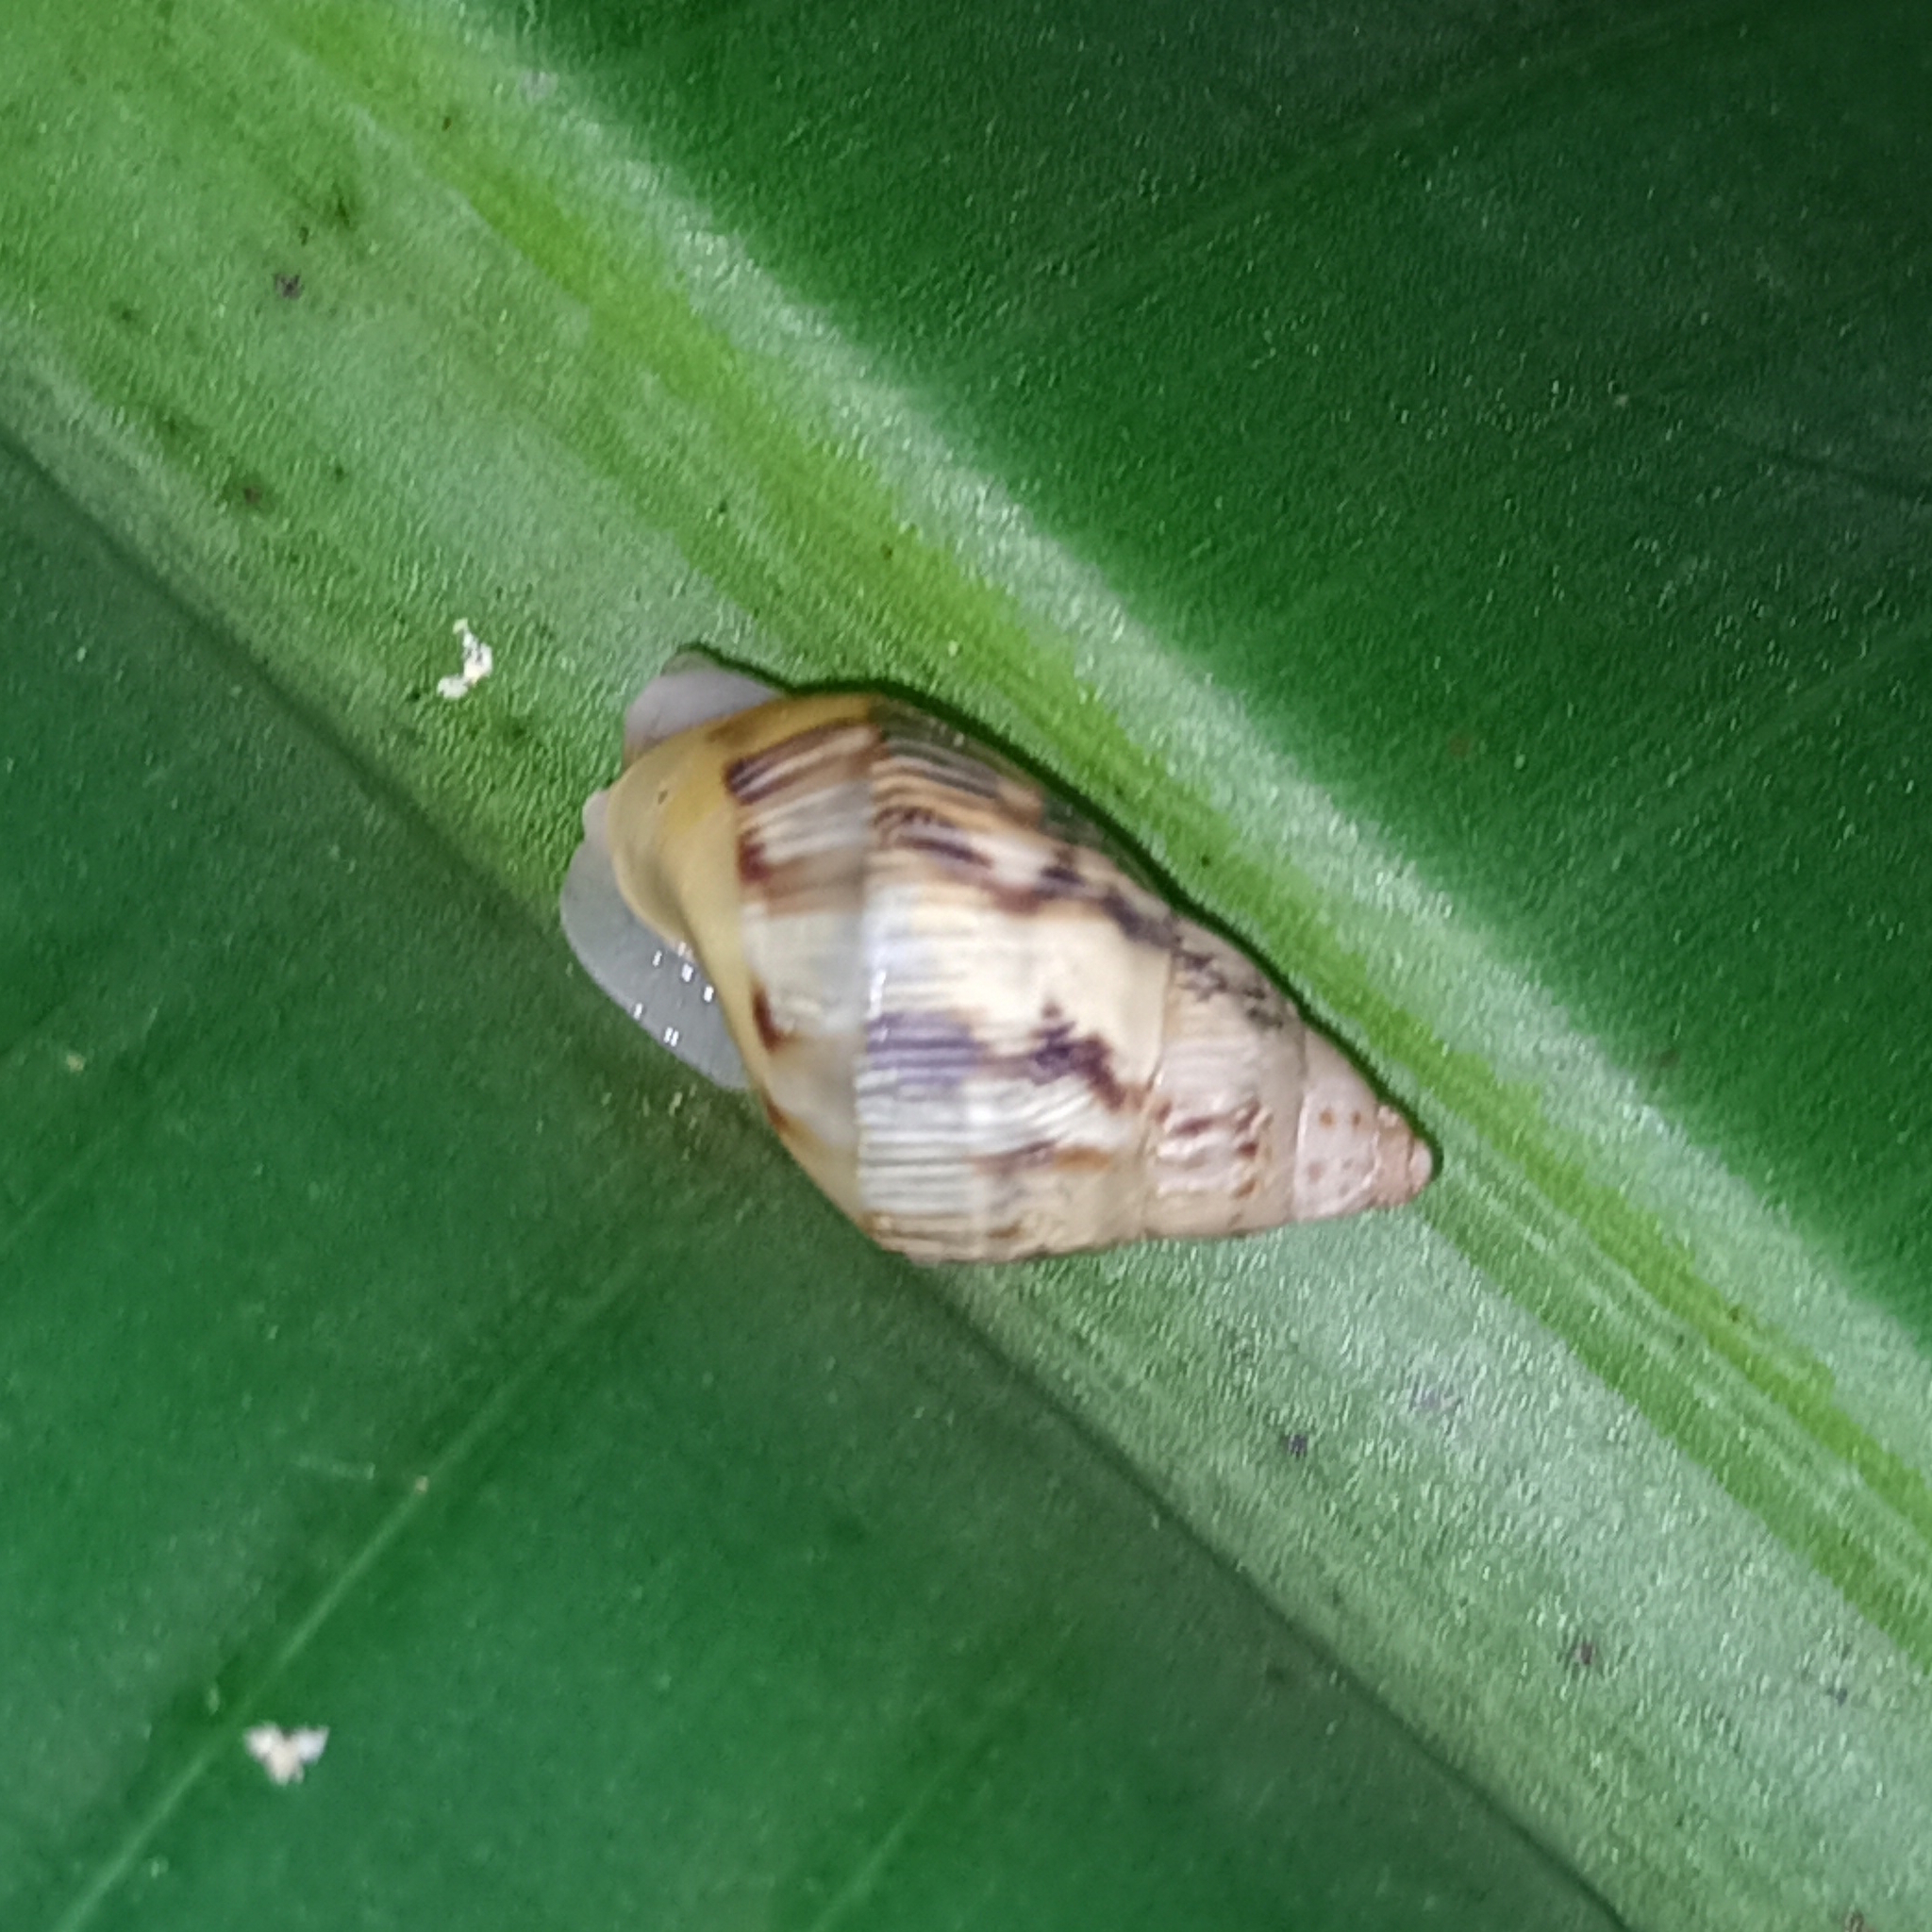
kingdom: Animalia
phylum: Mollusca
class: Gastropoda
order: Stylommatophora
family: Bulimulidae
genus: Drymaeus
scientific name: Drymaeus papyraceus
